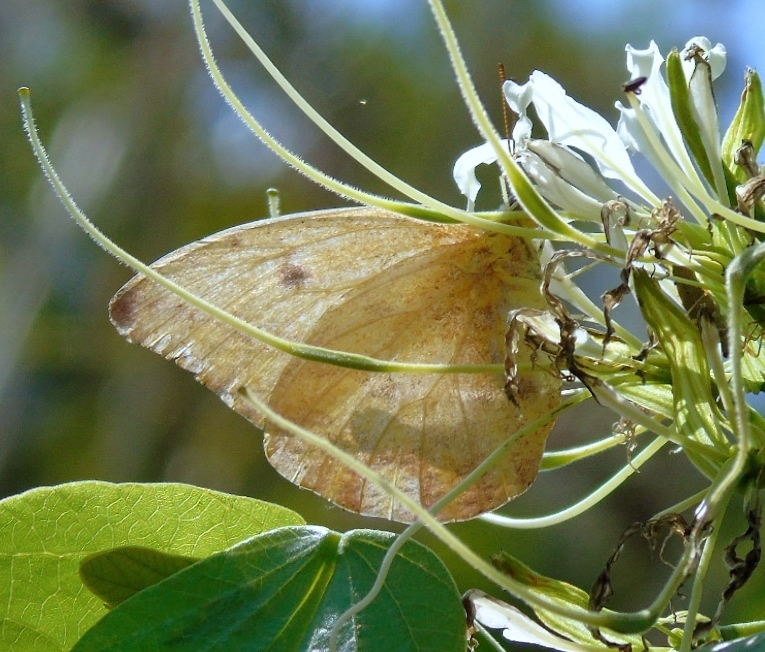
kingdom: Animalia
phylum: Arthropoda
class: Insecta
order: Lepidoptera
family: Pieridae
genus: Aphrissa
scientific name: Aphrissa
